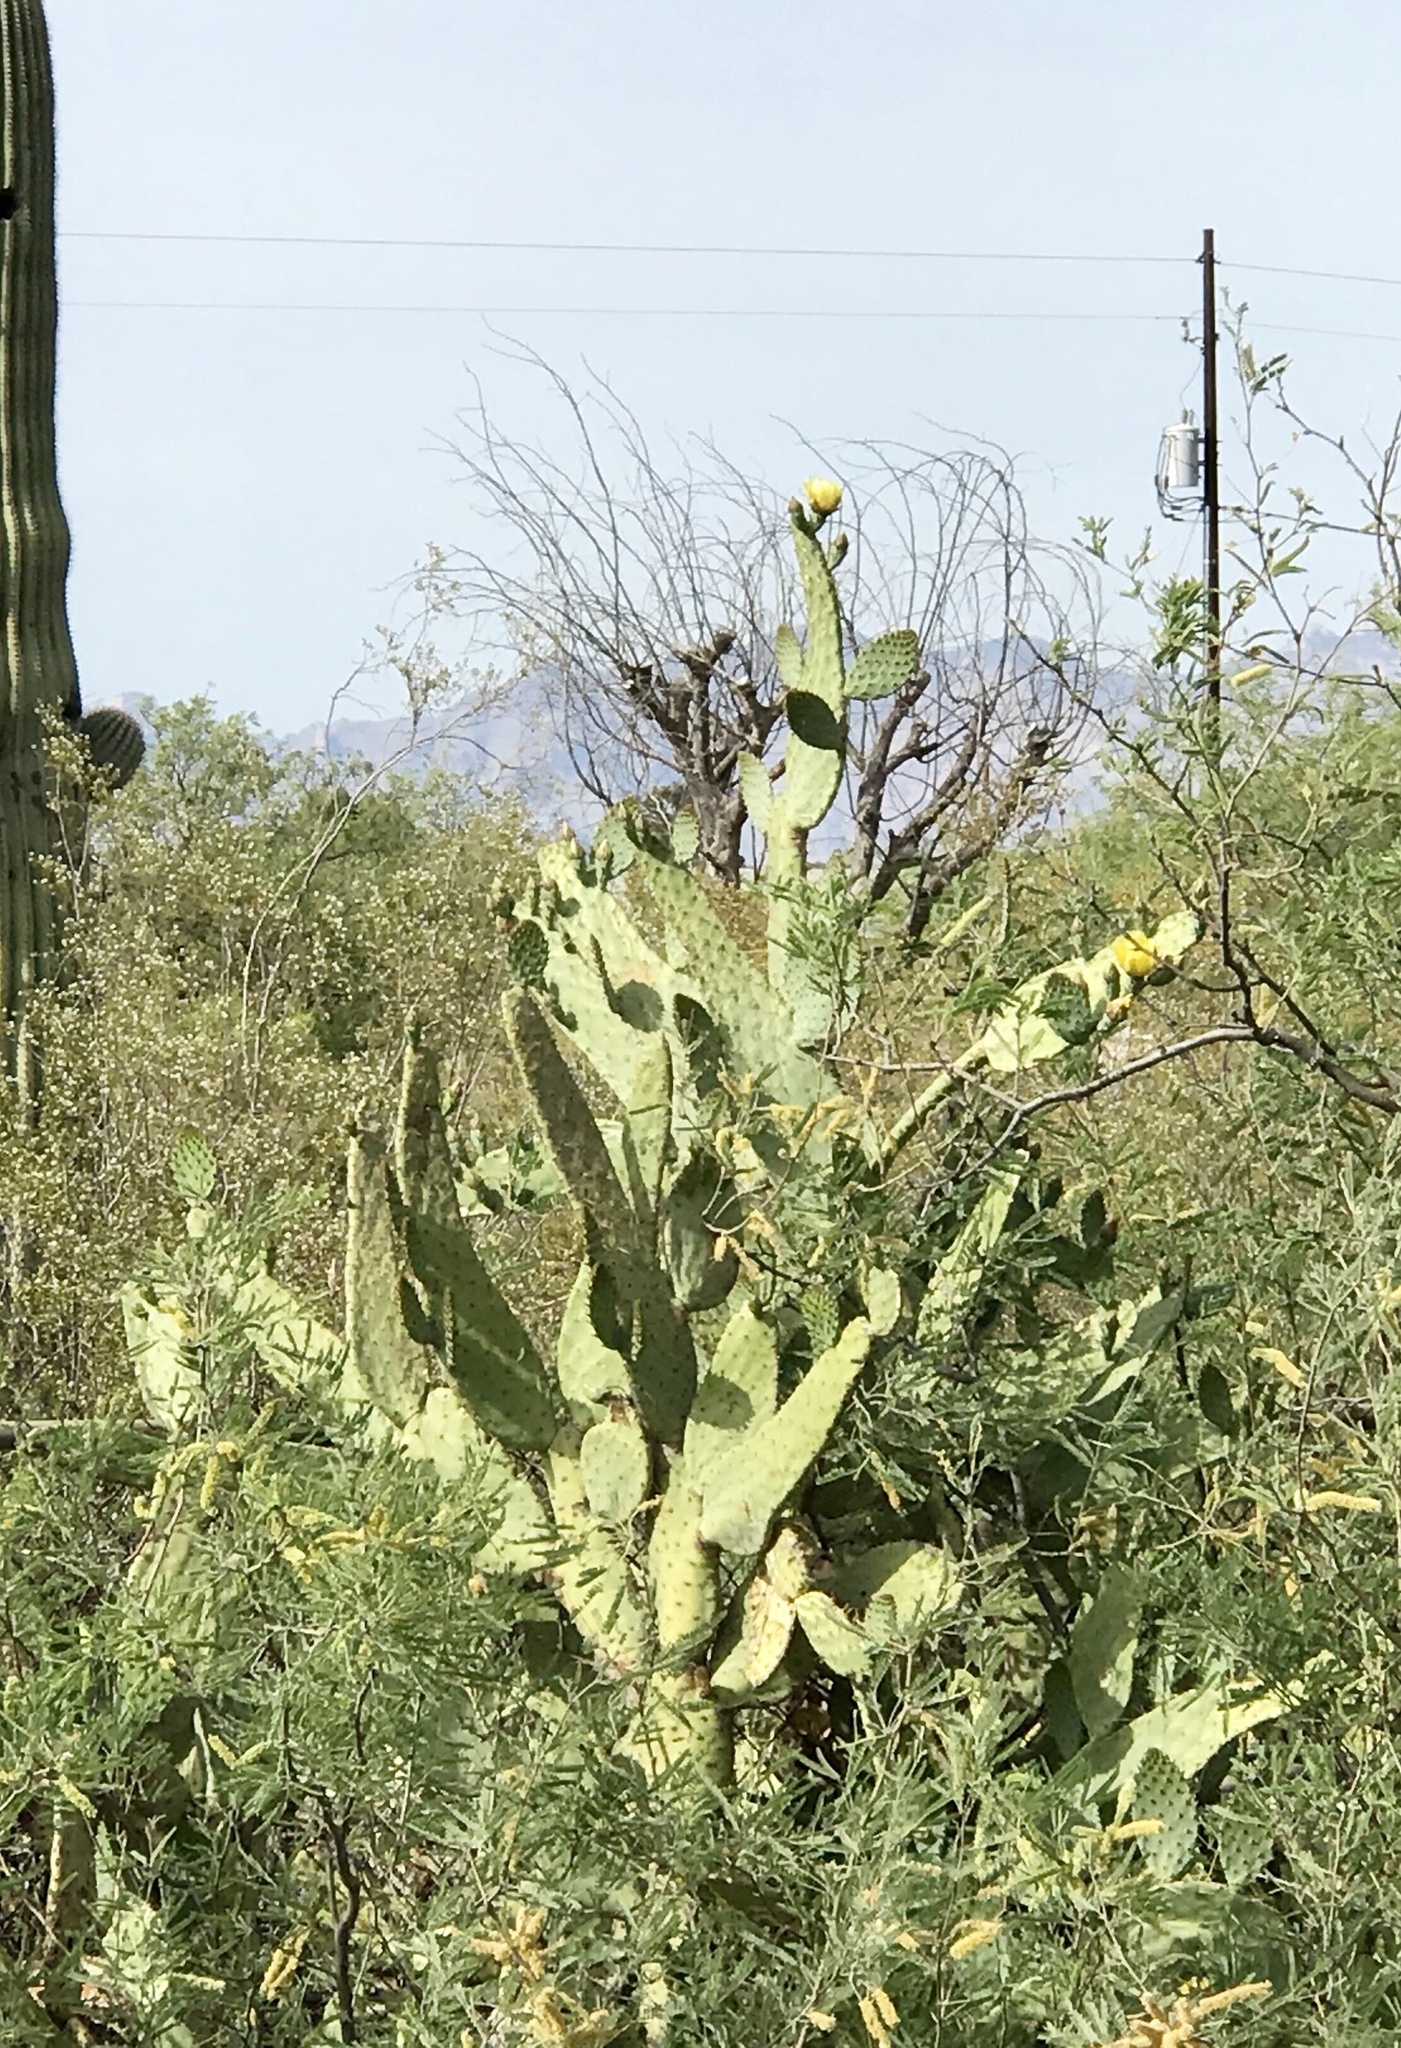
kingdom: Plantae
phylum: Tracheophyta
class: Magnoliopsida
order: Caryophyllales
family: Cactaceae
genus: Opuntia
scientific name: Opuntia engelmannii
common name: Cactus-apple
